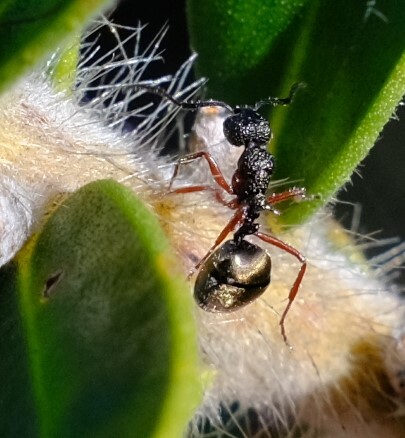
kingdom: Animalia
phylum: Arthropoda
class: Insecta
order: Hymenoptera
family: Formicidae
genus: Dolichoderus
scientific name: Dolichoderus ypsilon
